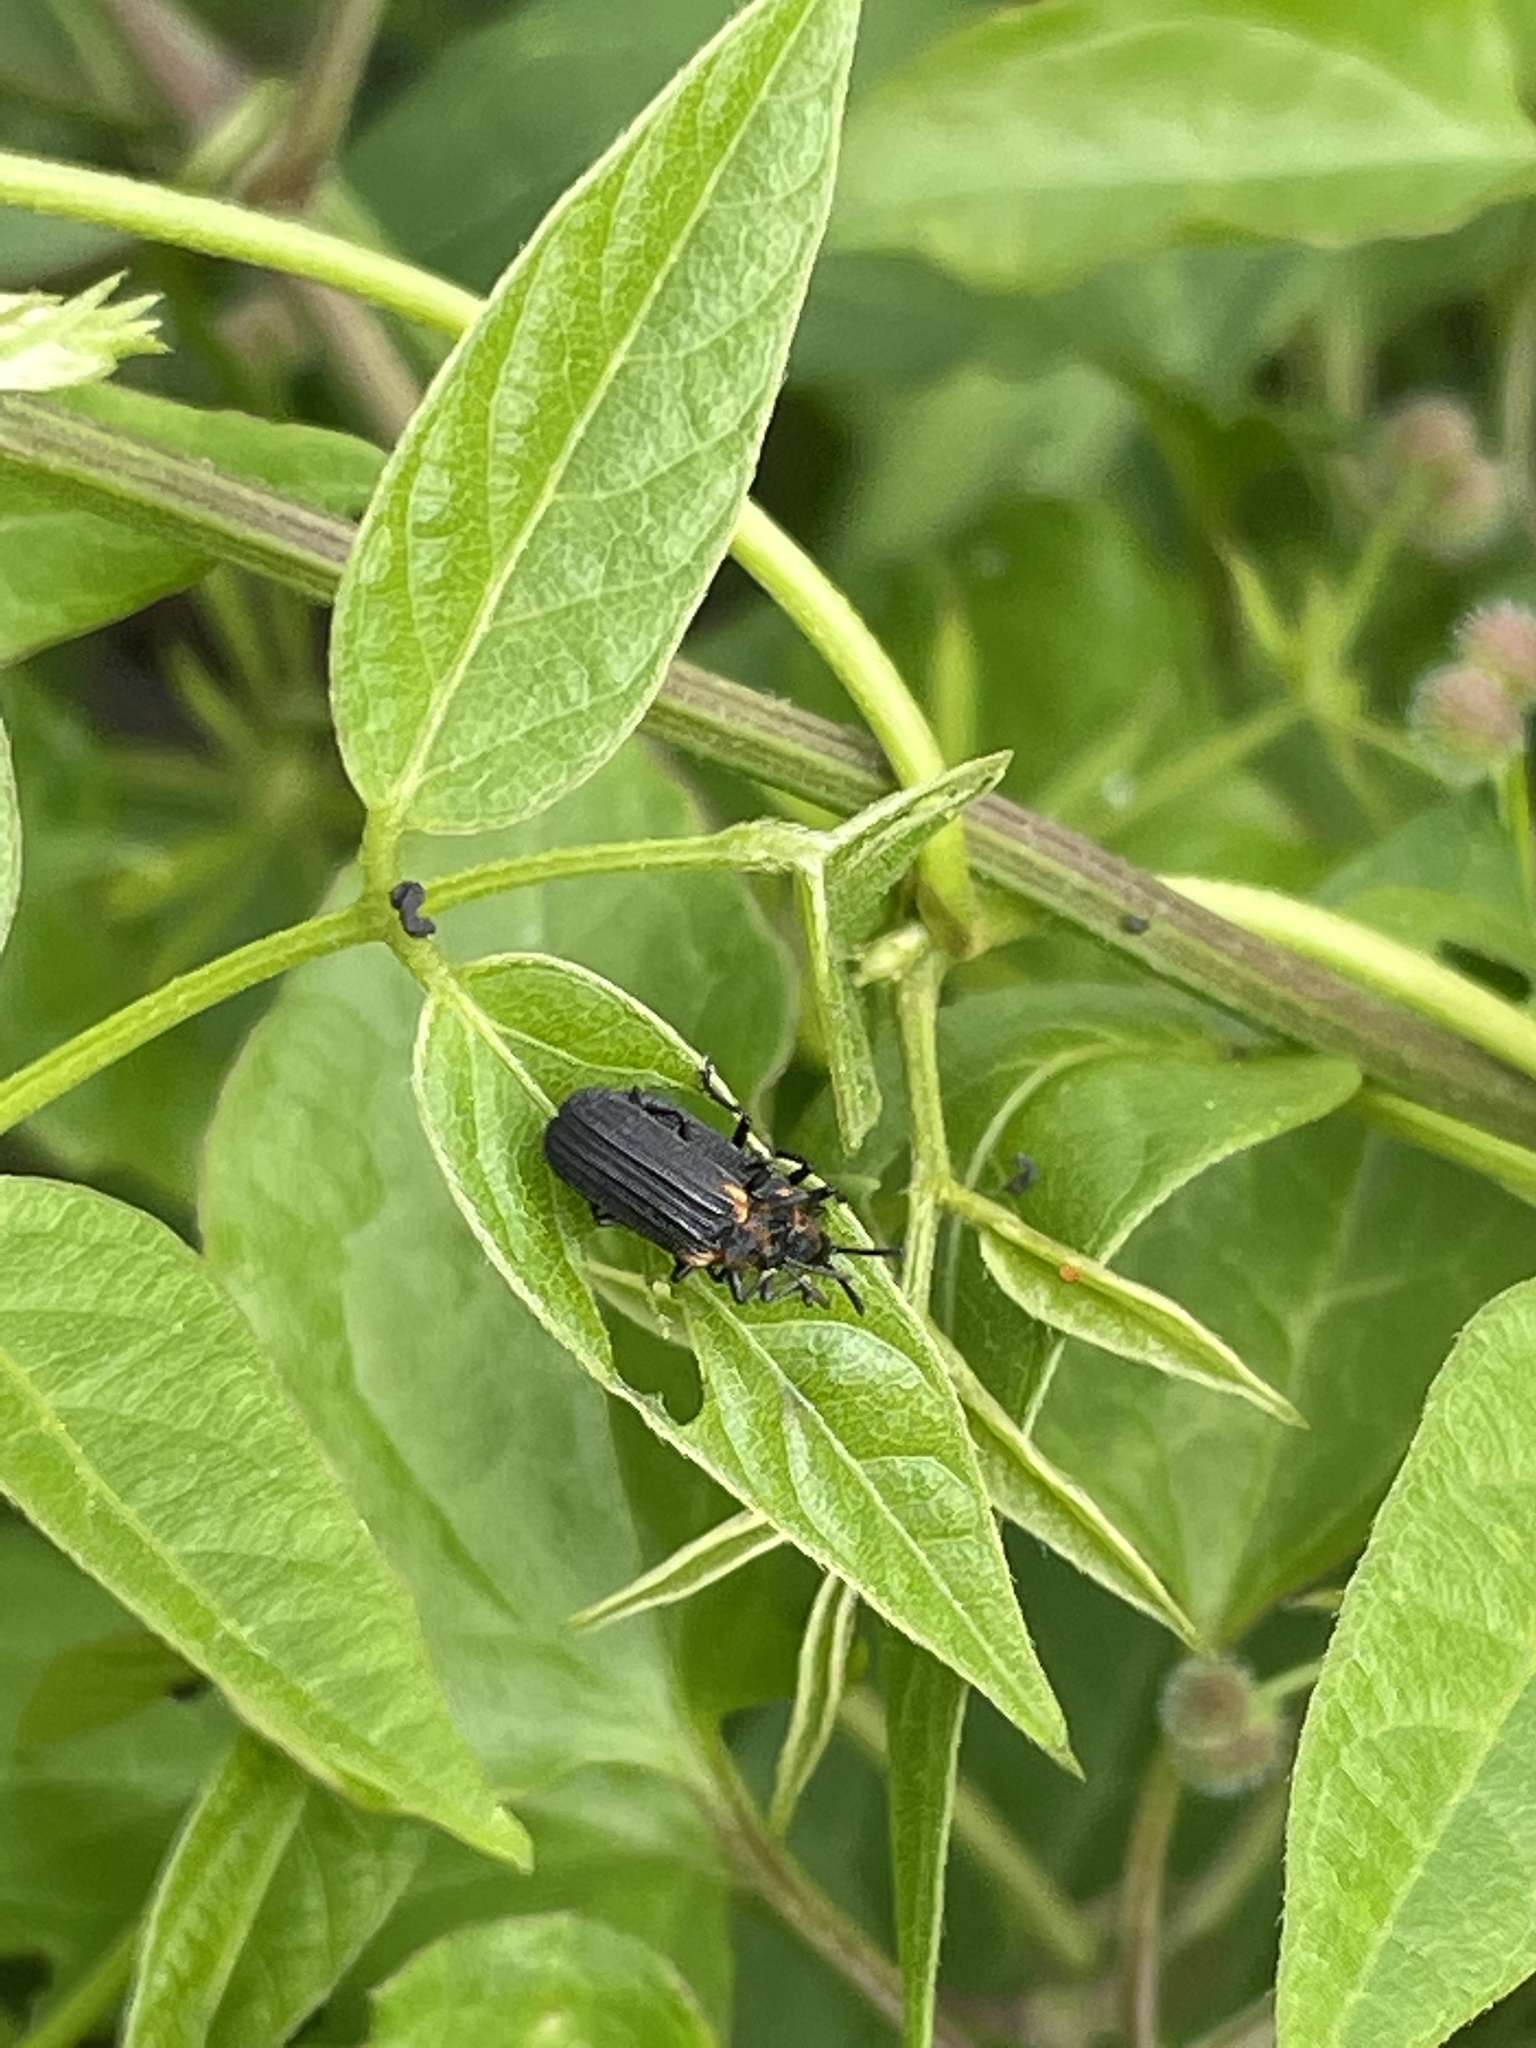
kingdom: Animalia
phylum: Arthropoda
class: Insecta
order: Coleoptera
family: Chrysomelidae
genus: Odontota
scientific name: Odontota scapularis
